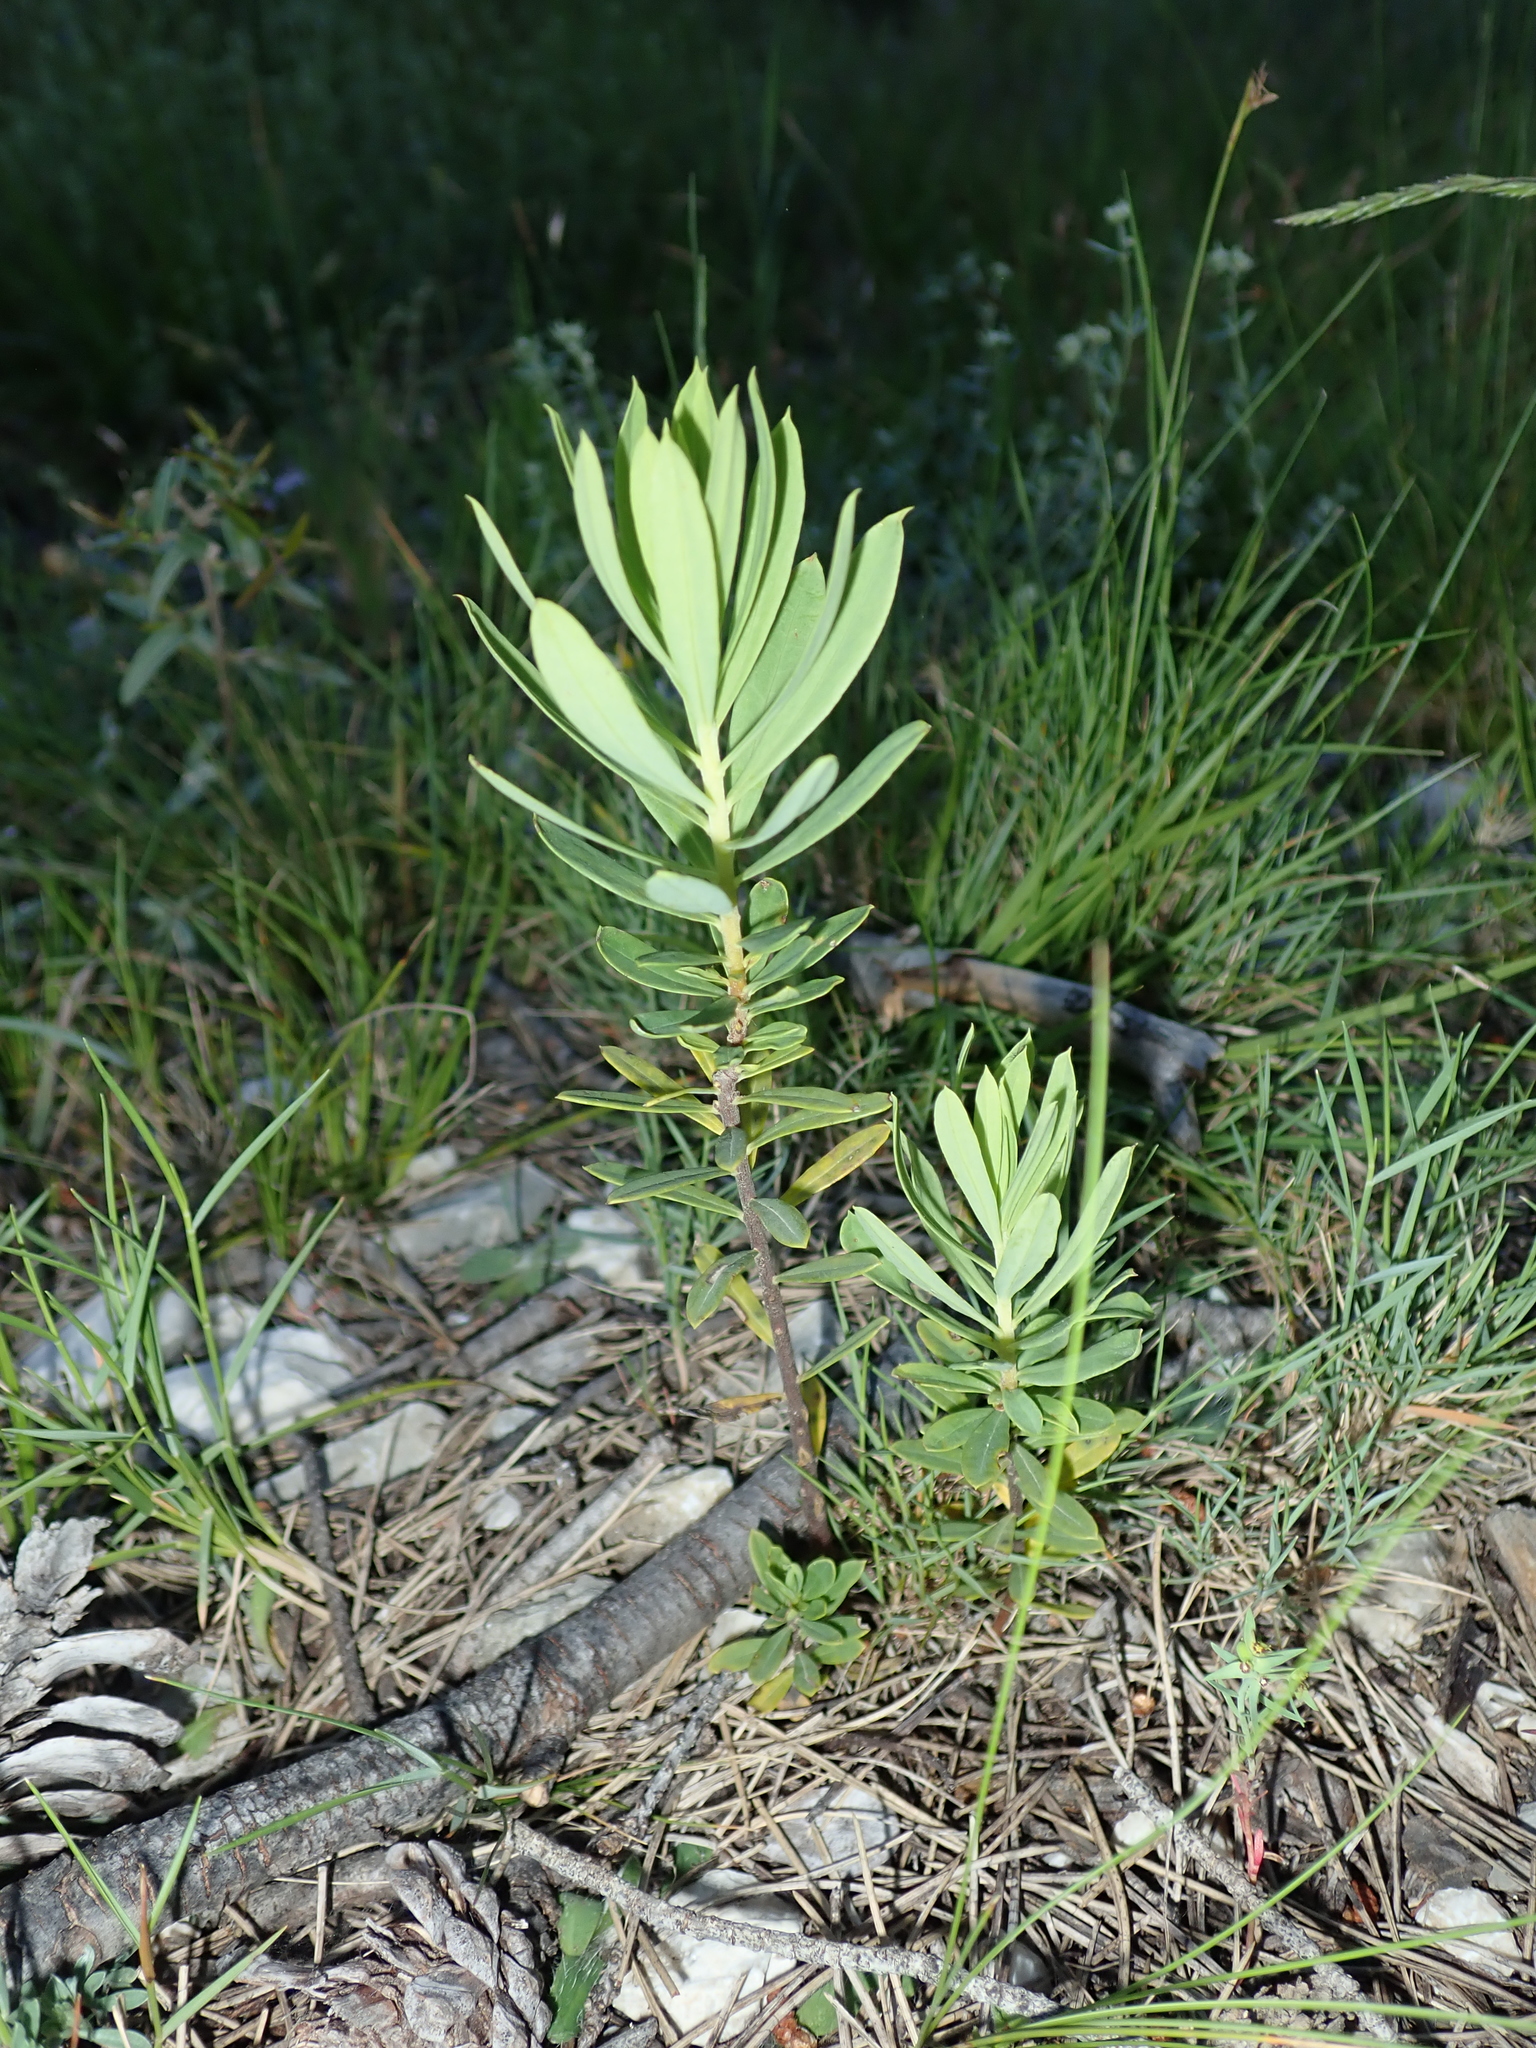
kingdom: Plantae
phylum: Tracheophyta
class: Magnoliopsida
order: Malvales
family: Thymelaeaceae
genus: Daphne
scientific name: Daphne gnidium
